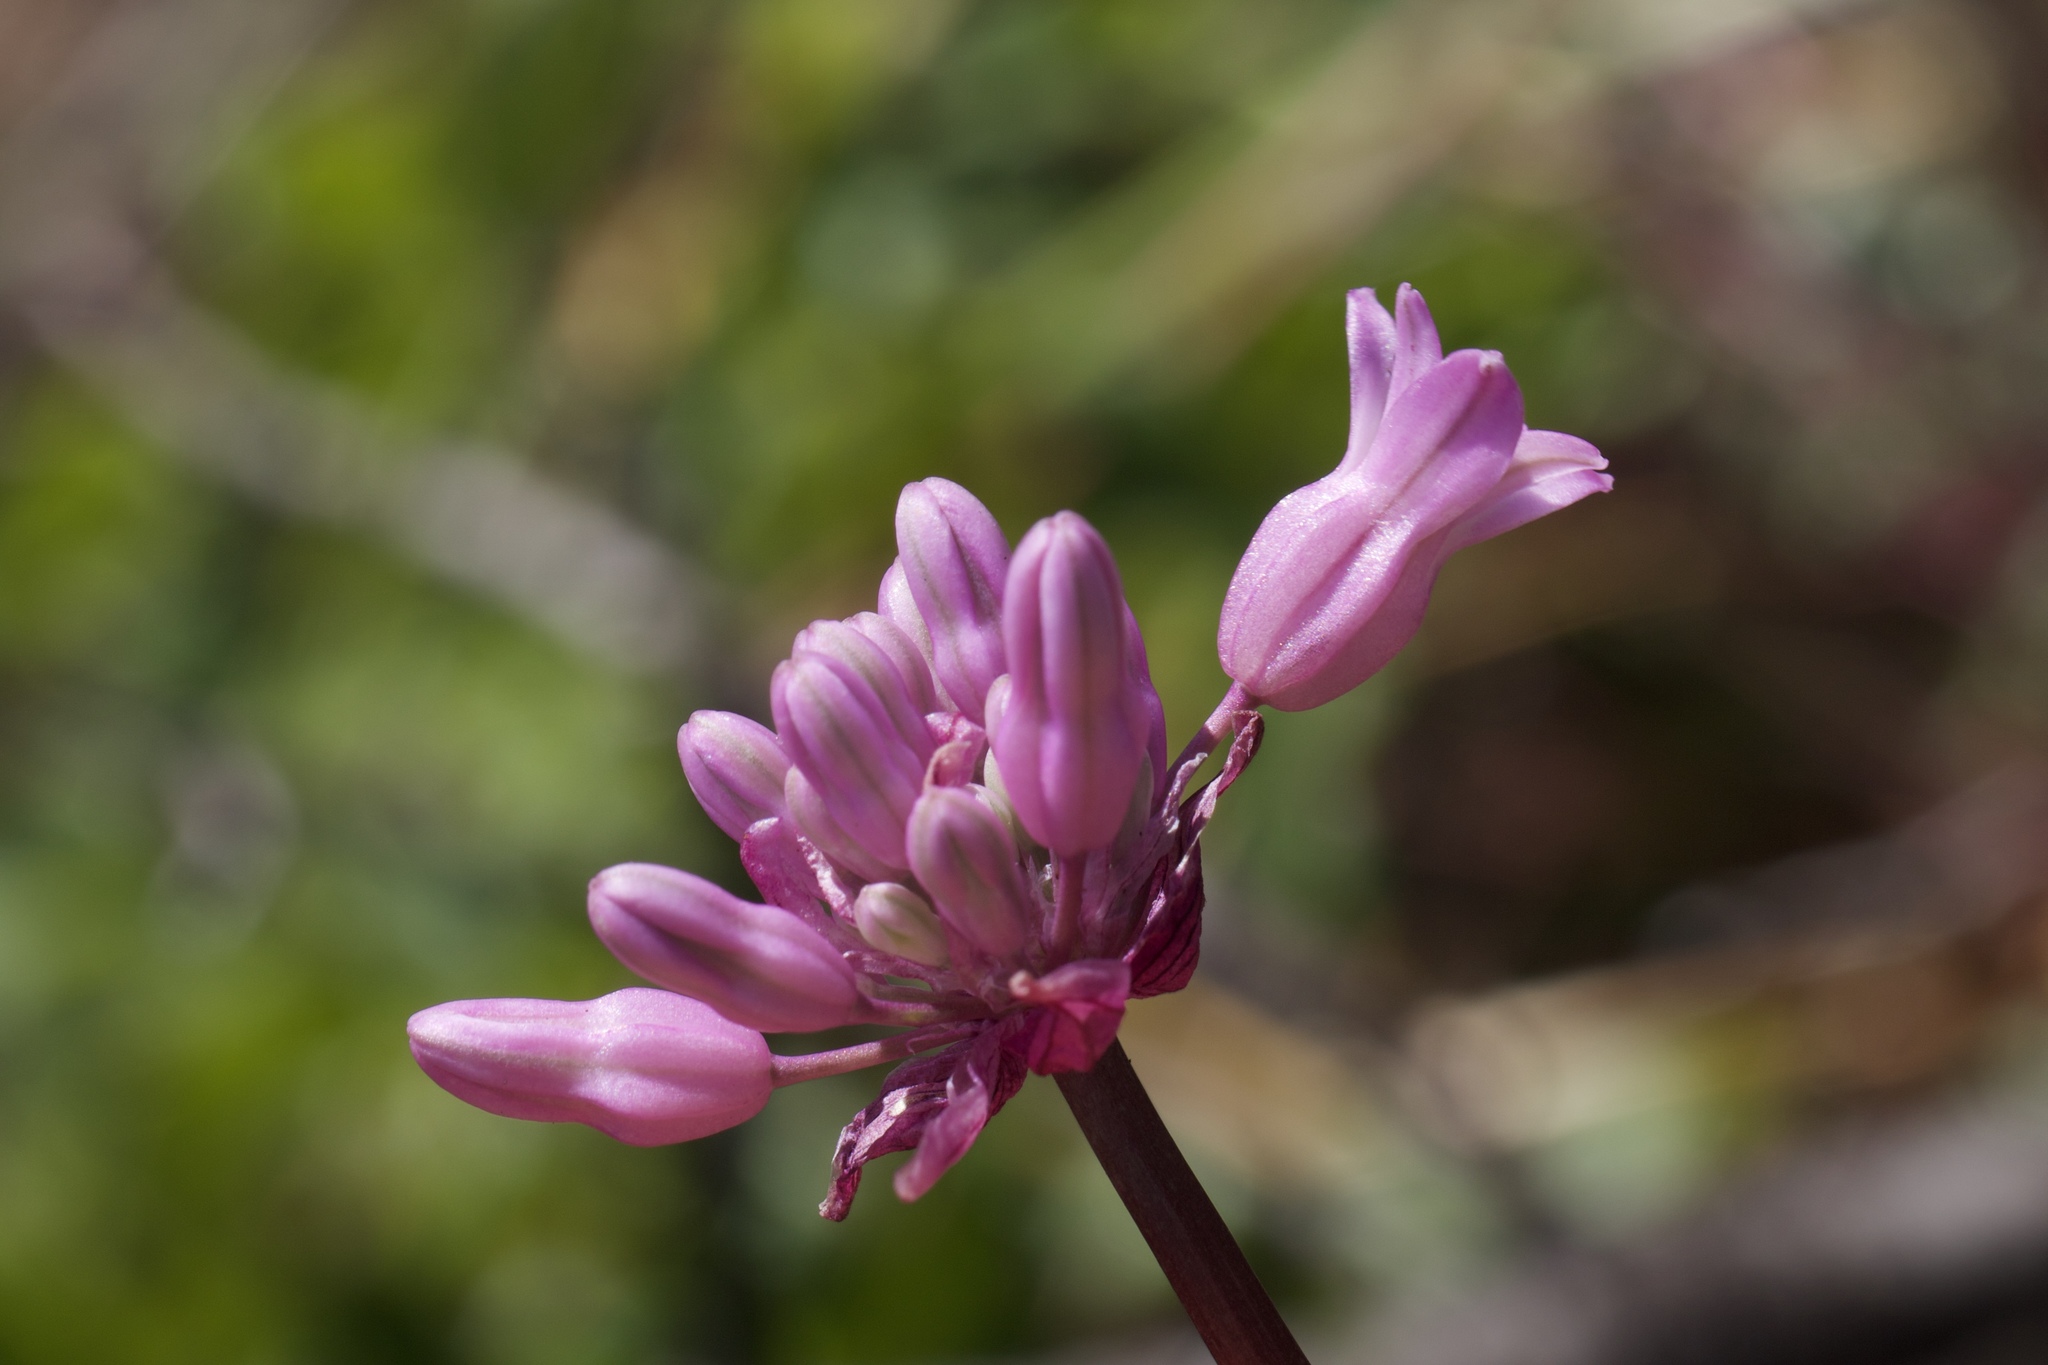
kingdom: Plantae
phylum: Tracheophyta
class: Liliopsida
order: Asparagales
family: Asparagaceae
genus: Dichelostemma
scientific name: Dichelostemma volubile
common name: Trining brodiaea
